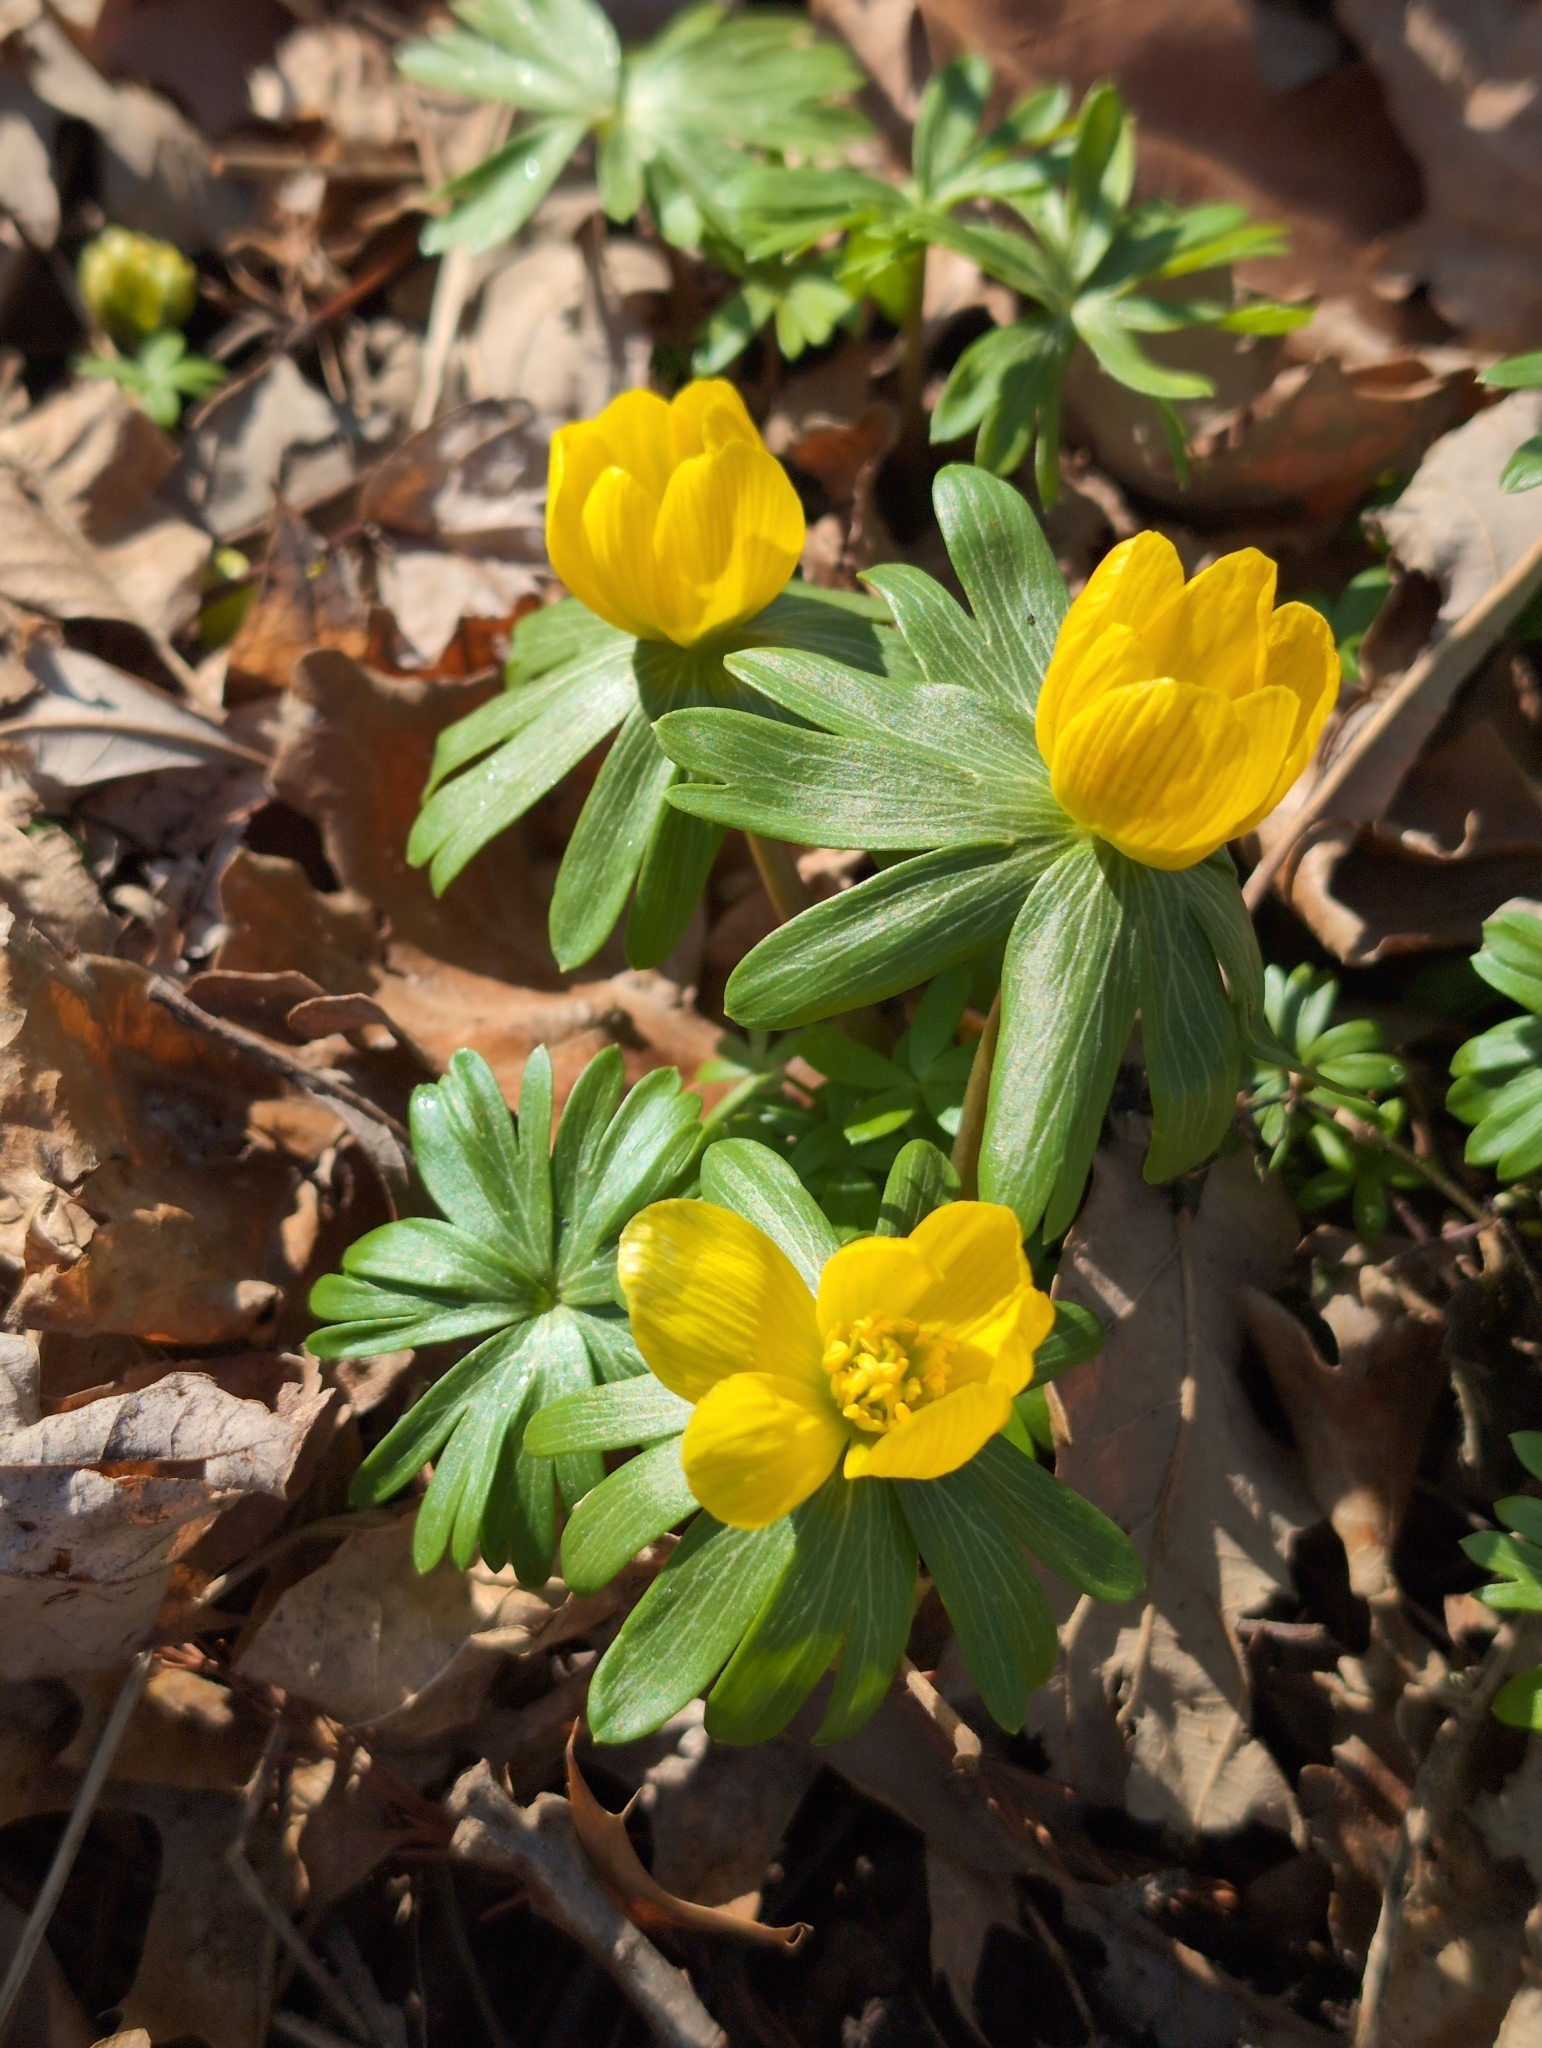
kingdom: Plantae
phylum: Tracheophyta
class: Magnoliopsida
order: Ranunculales
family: Ranunculaceae
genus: Eranthis
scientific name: Eranthis hyemalis
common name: Winter aconite
